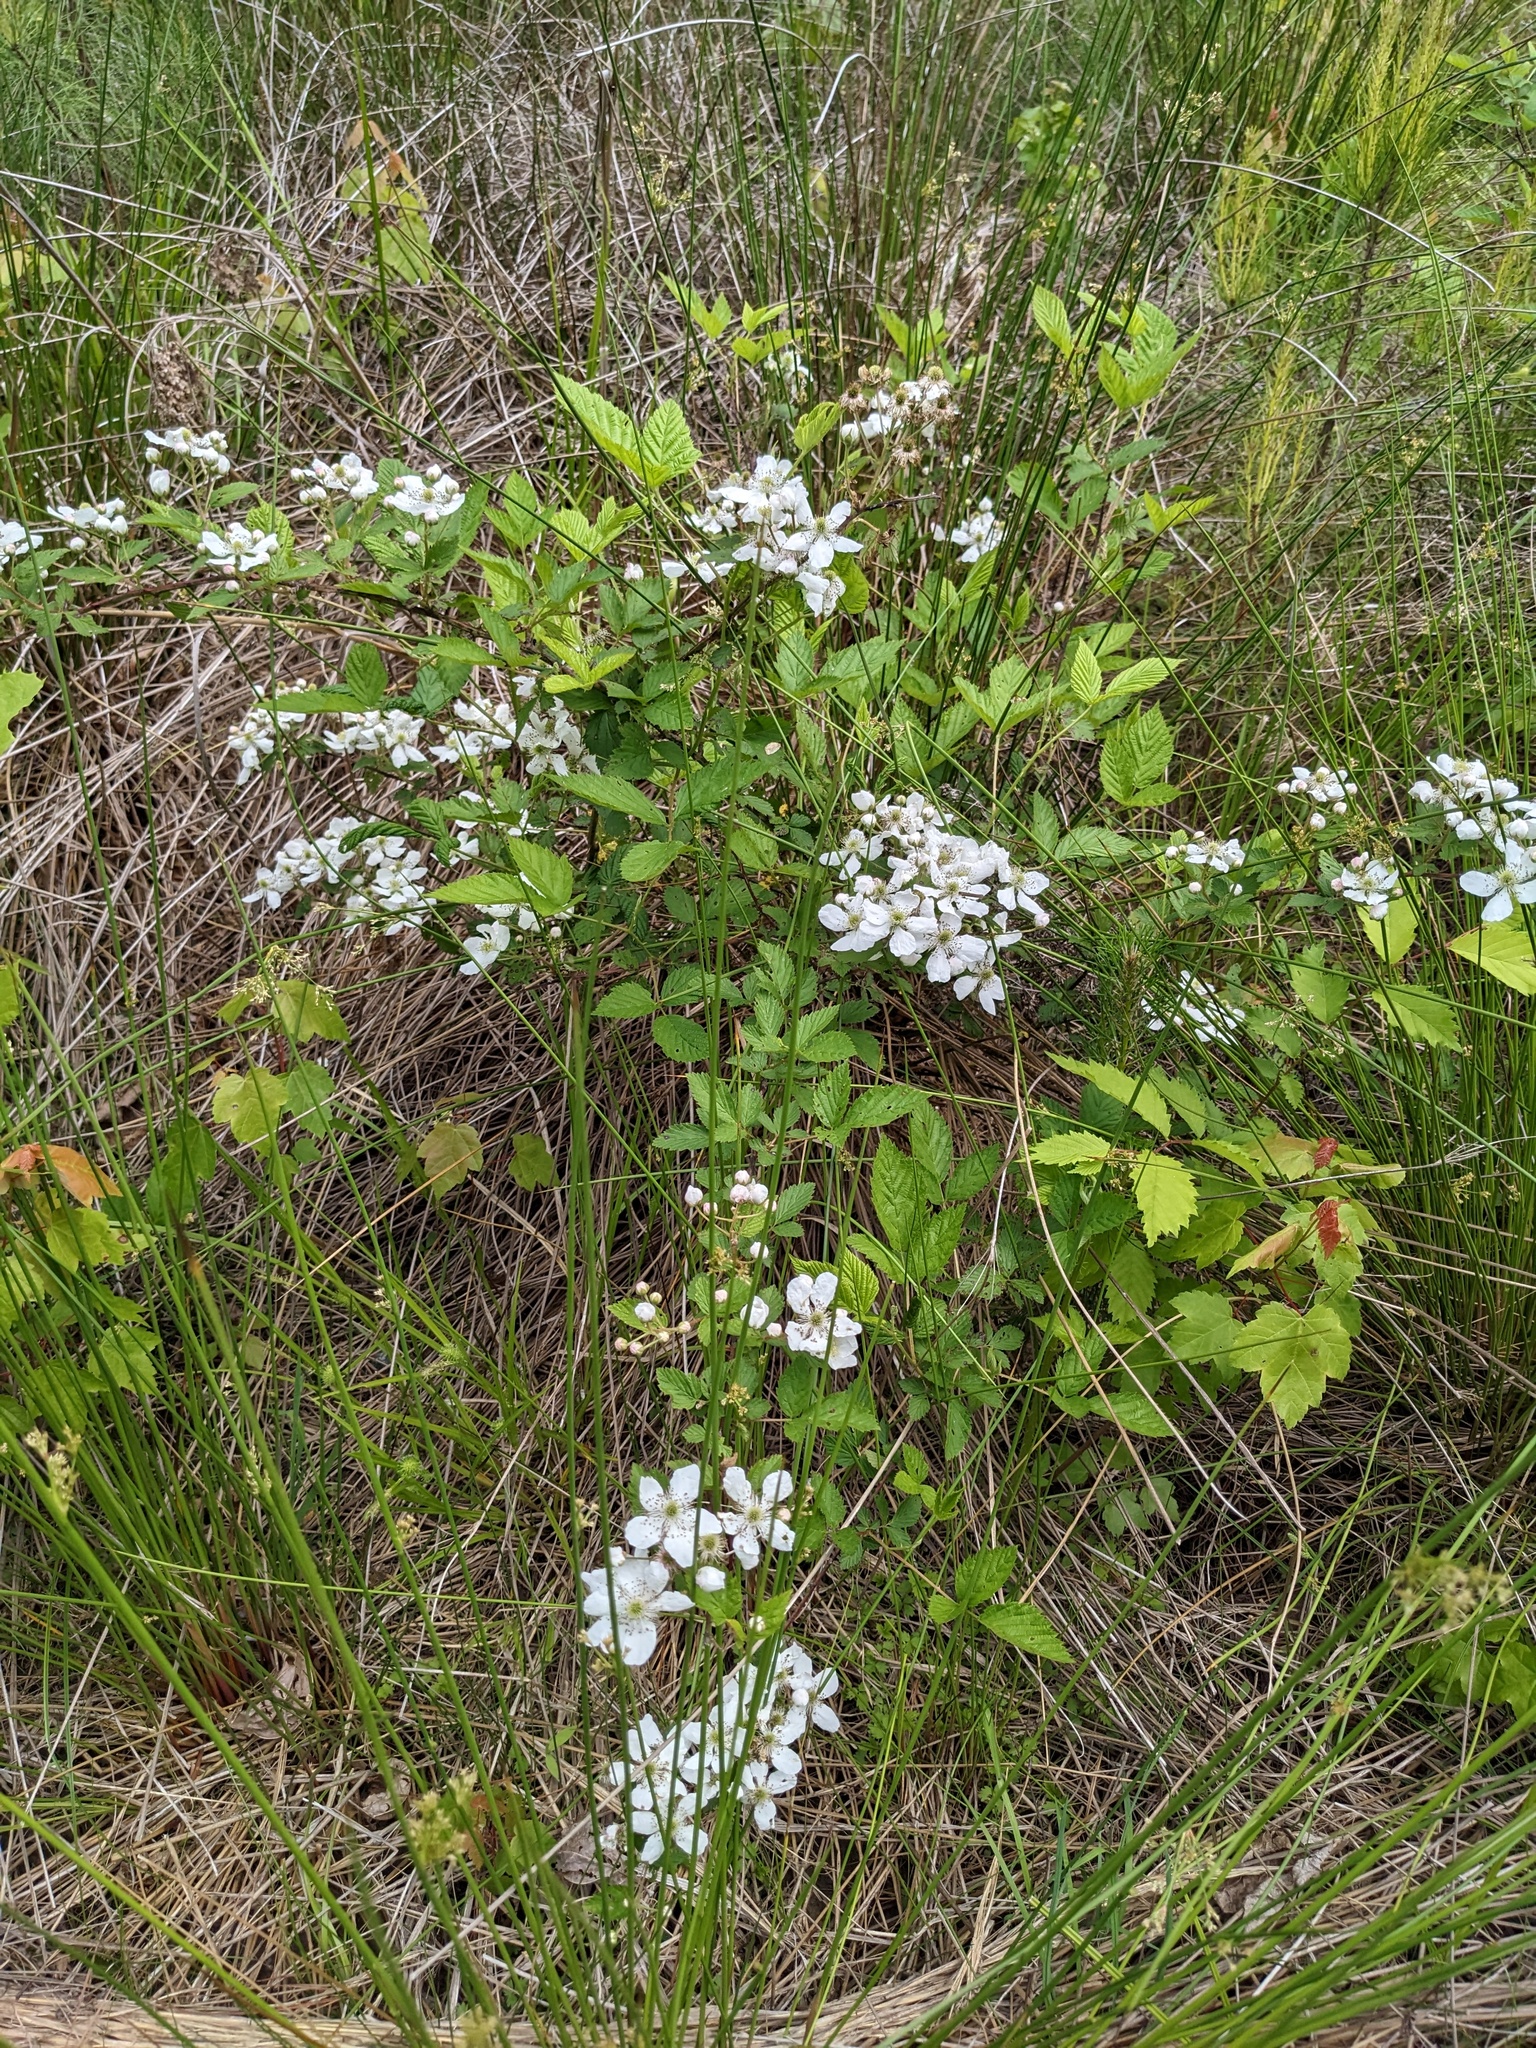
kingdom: Plantae
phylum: Tracheophyta
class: Magnoliopsida
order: Rosales
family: Rosaceae
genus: Rosa
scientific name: Rosa multiflora
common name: Multiflora rose
